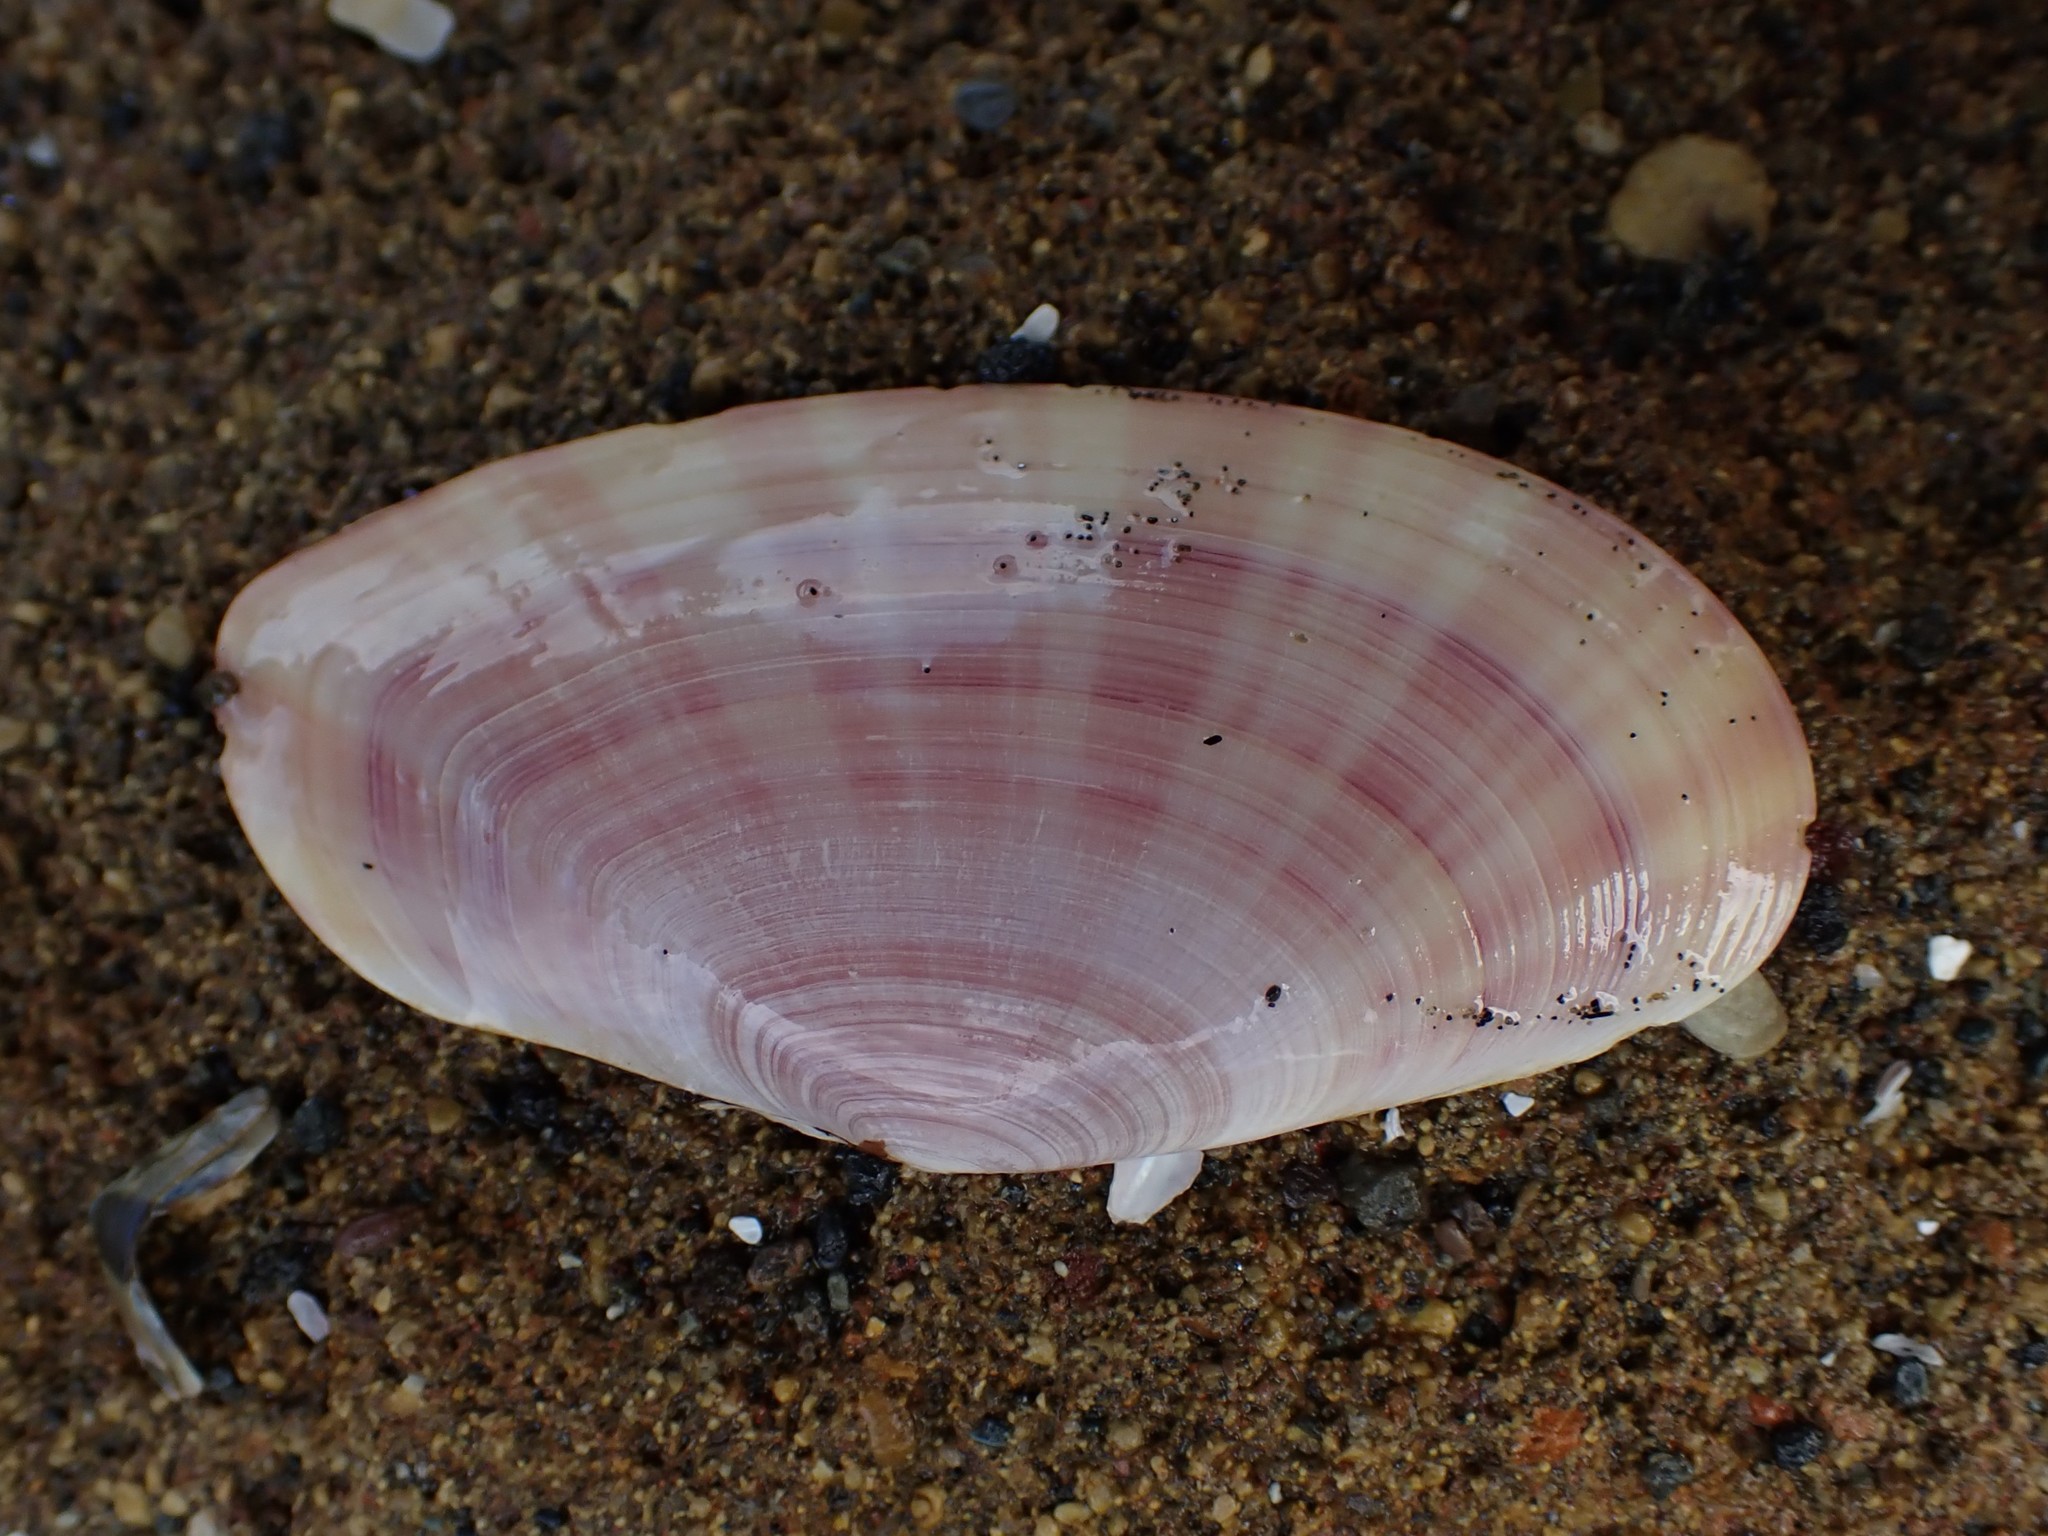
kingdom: Animalia
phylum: Mollusca
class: Bivalvia
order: Cardiida
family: Psammobiidae
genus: Gari
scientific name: Gari convexa
